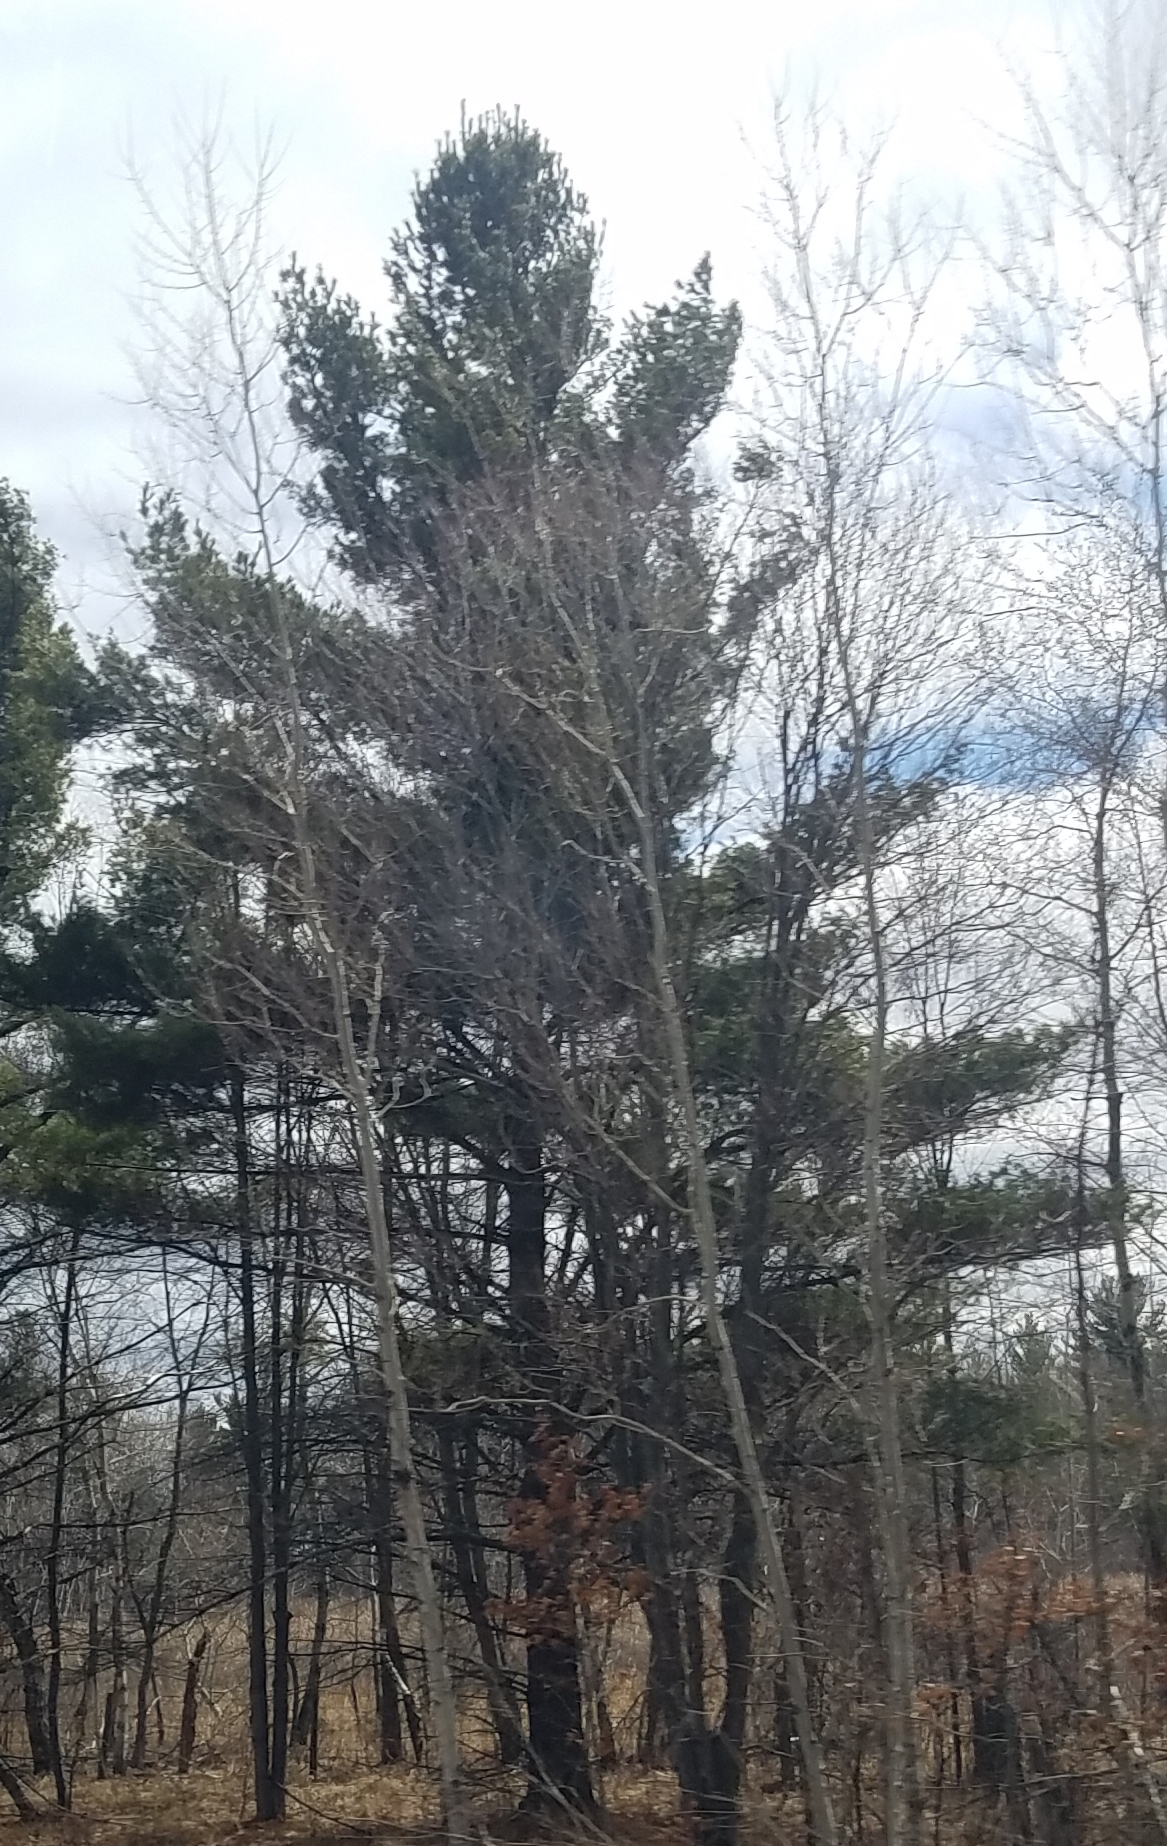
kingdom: Plantae
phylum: Tracheophyta
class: Pinopsida
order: Pinales
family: Pinaceae
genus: Pinus
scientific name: Pinus strobus
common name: Weymouth pine
